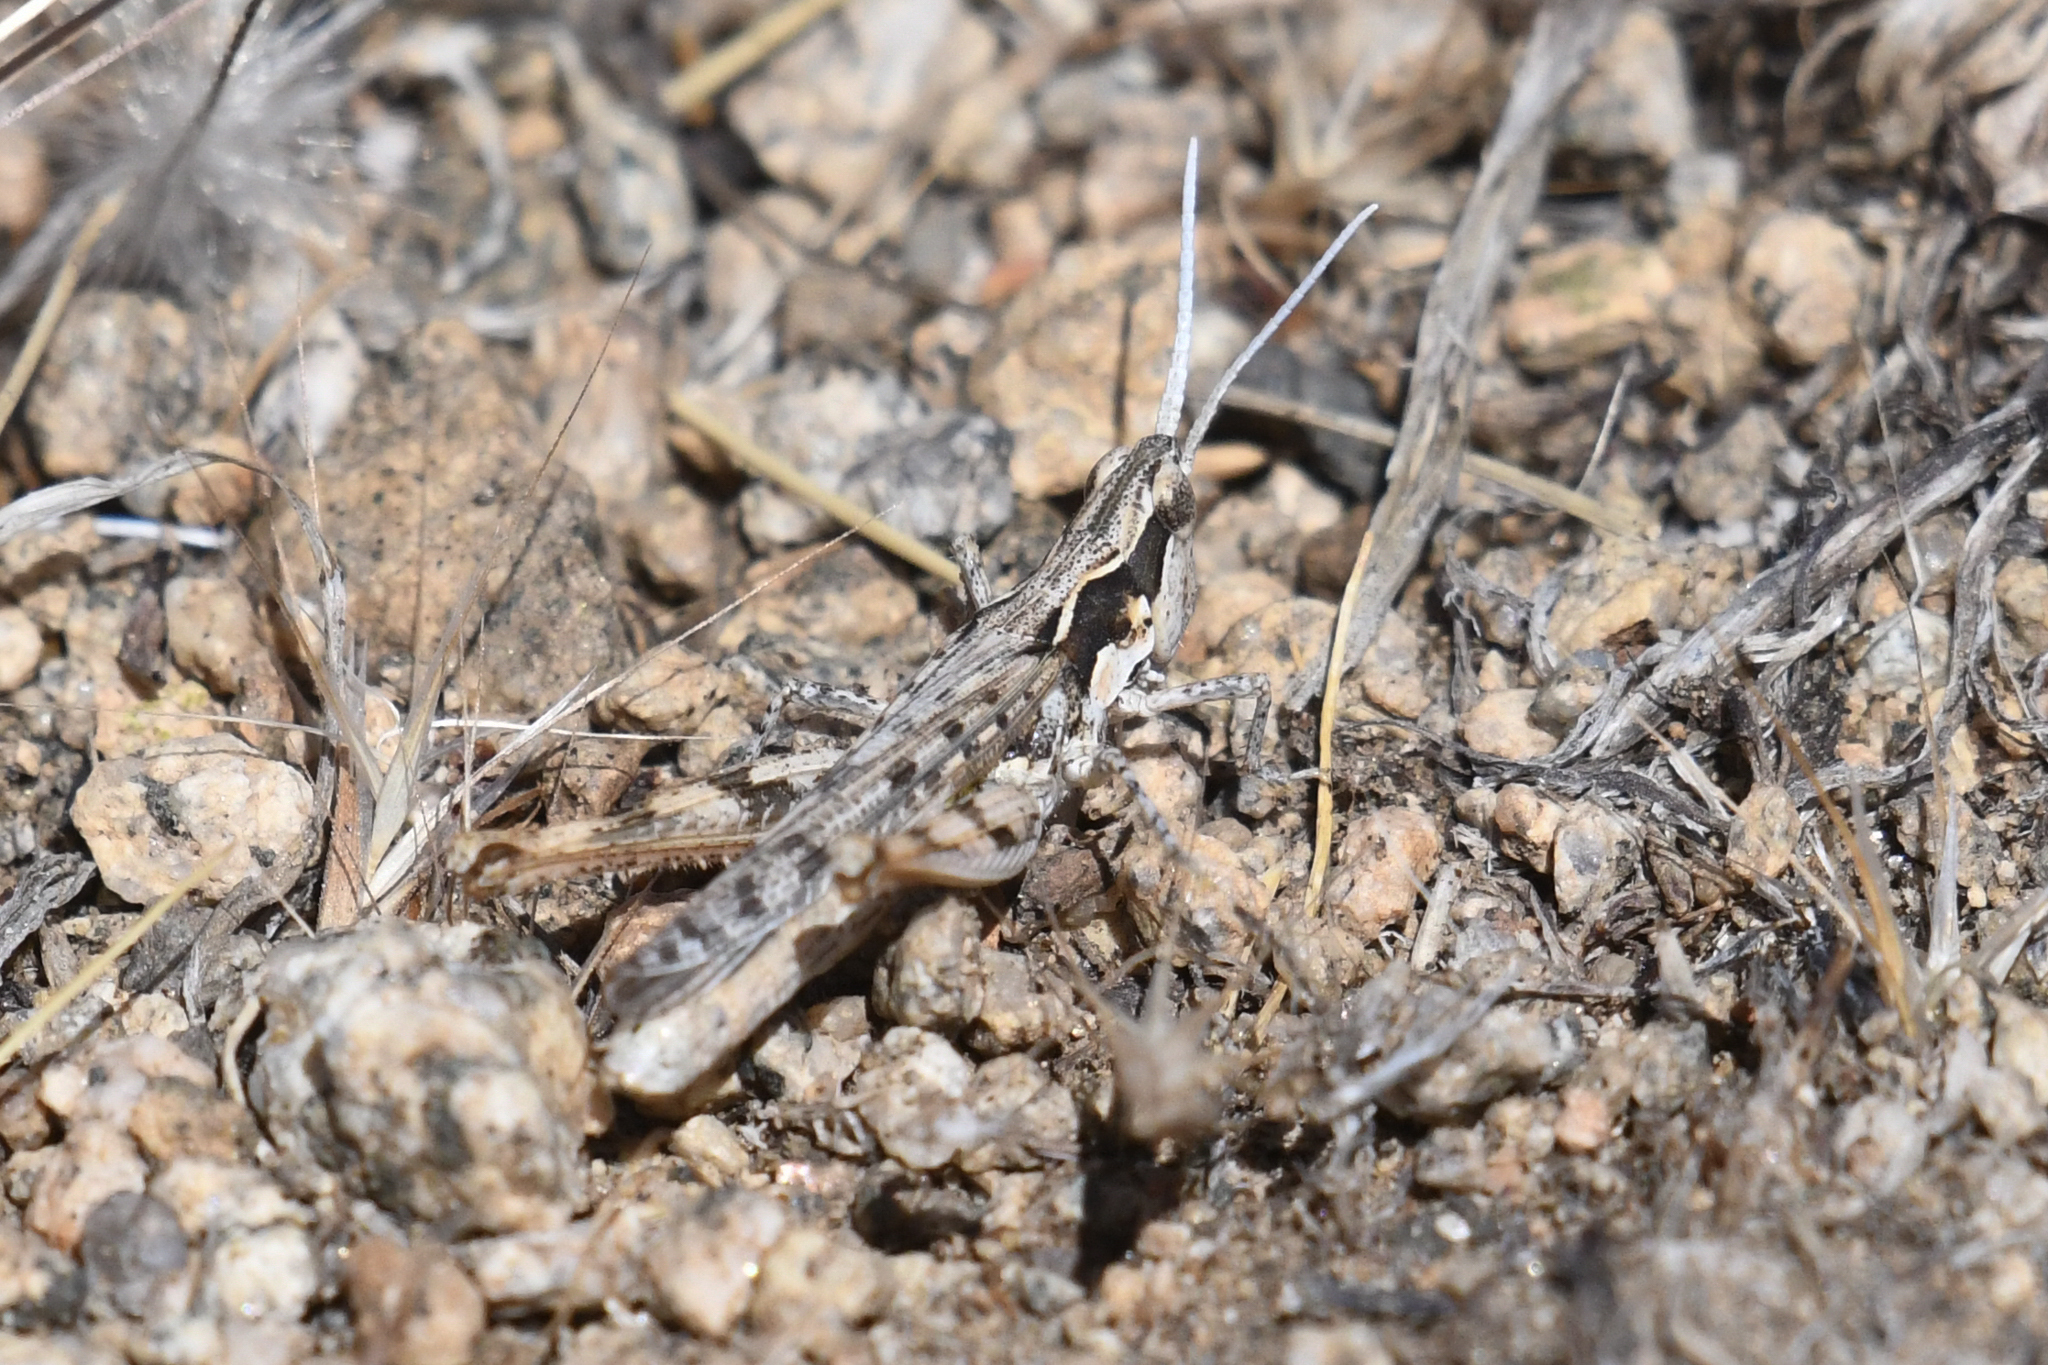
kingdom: Animalia
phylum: Arthropoda
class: Insecta
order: Orthoptera
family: Acrididae
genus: Cordillacris
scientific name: Cordillacris occipitalis
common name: Spotted-winged grasshopper
